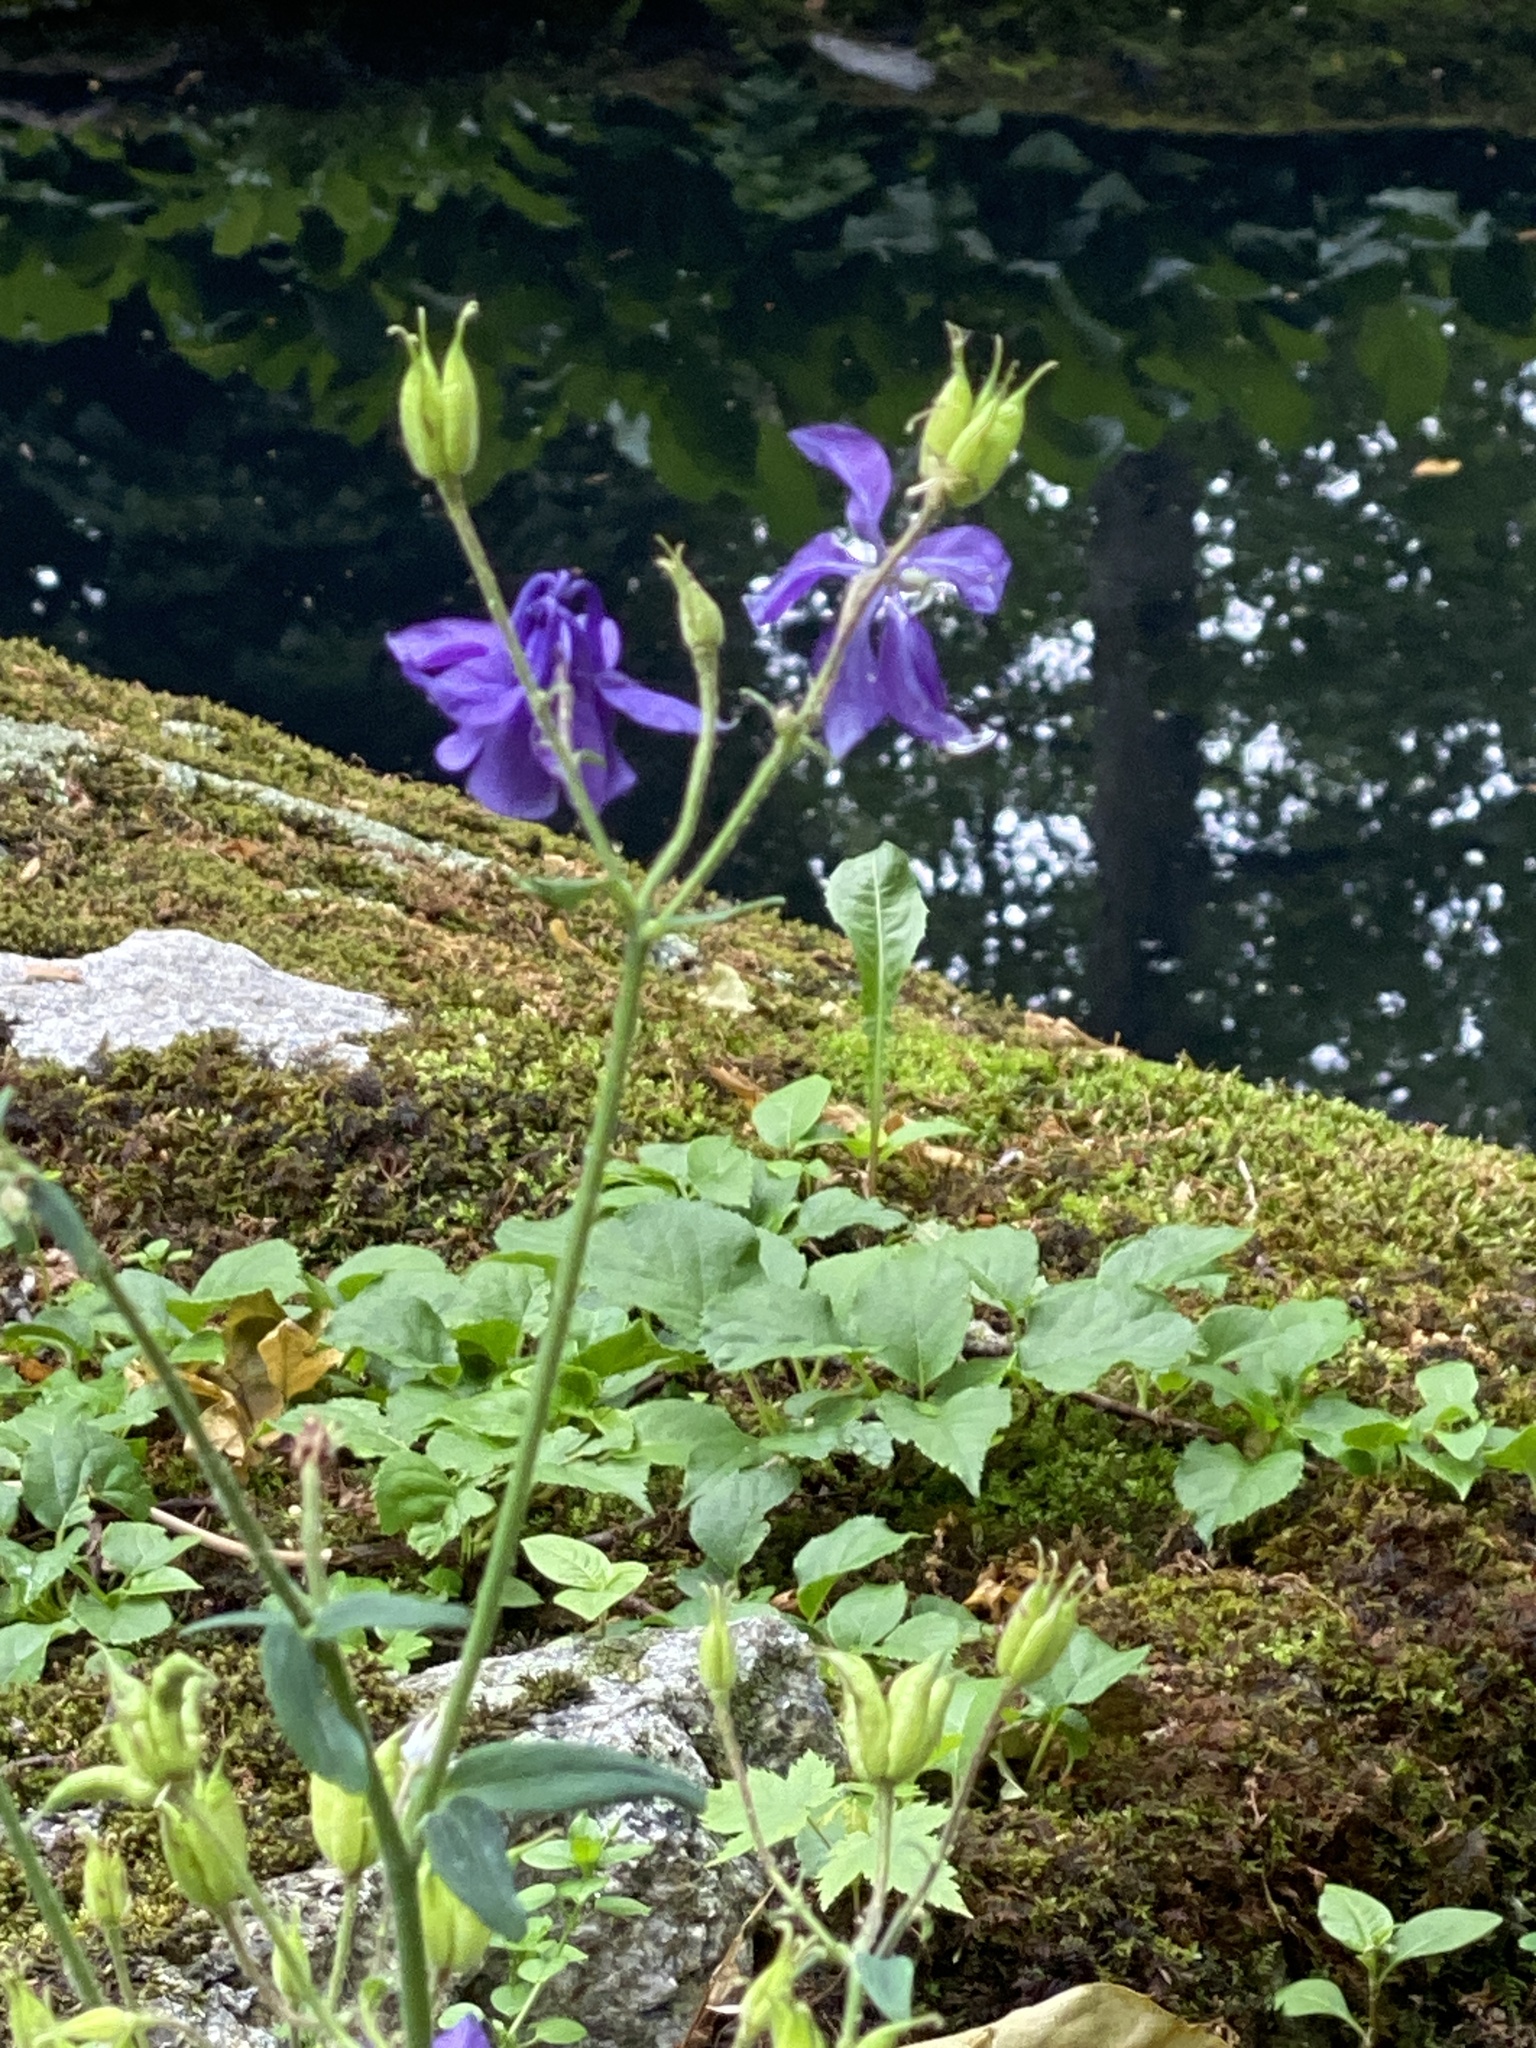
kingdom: Plantae
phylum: Tracheophyta
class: Magnoliopsida
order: Ranunculales
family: Ranunculaceae
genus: Aquilegia
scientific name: Aquilegia vulgaris
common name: Columbine
